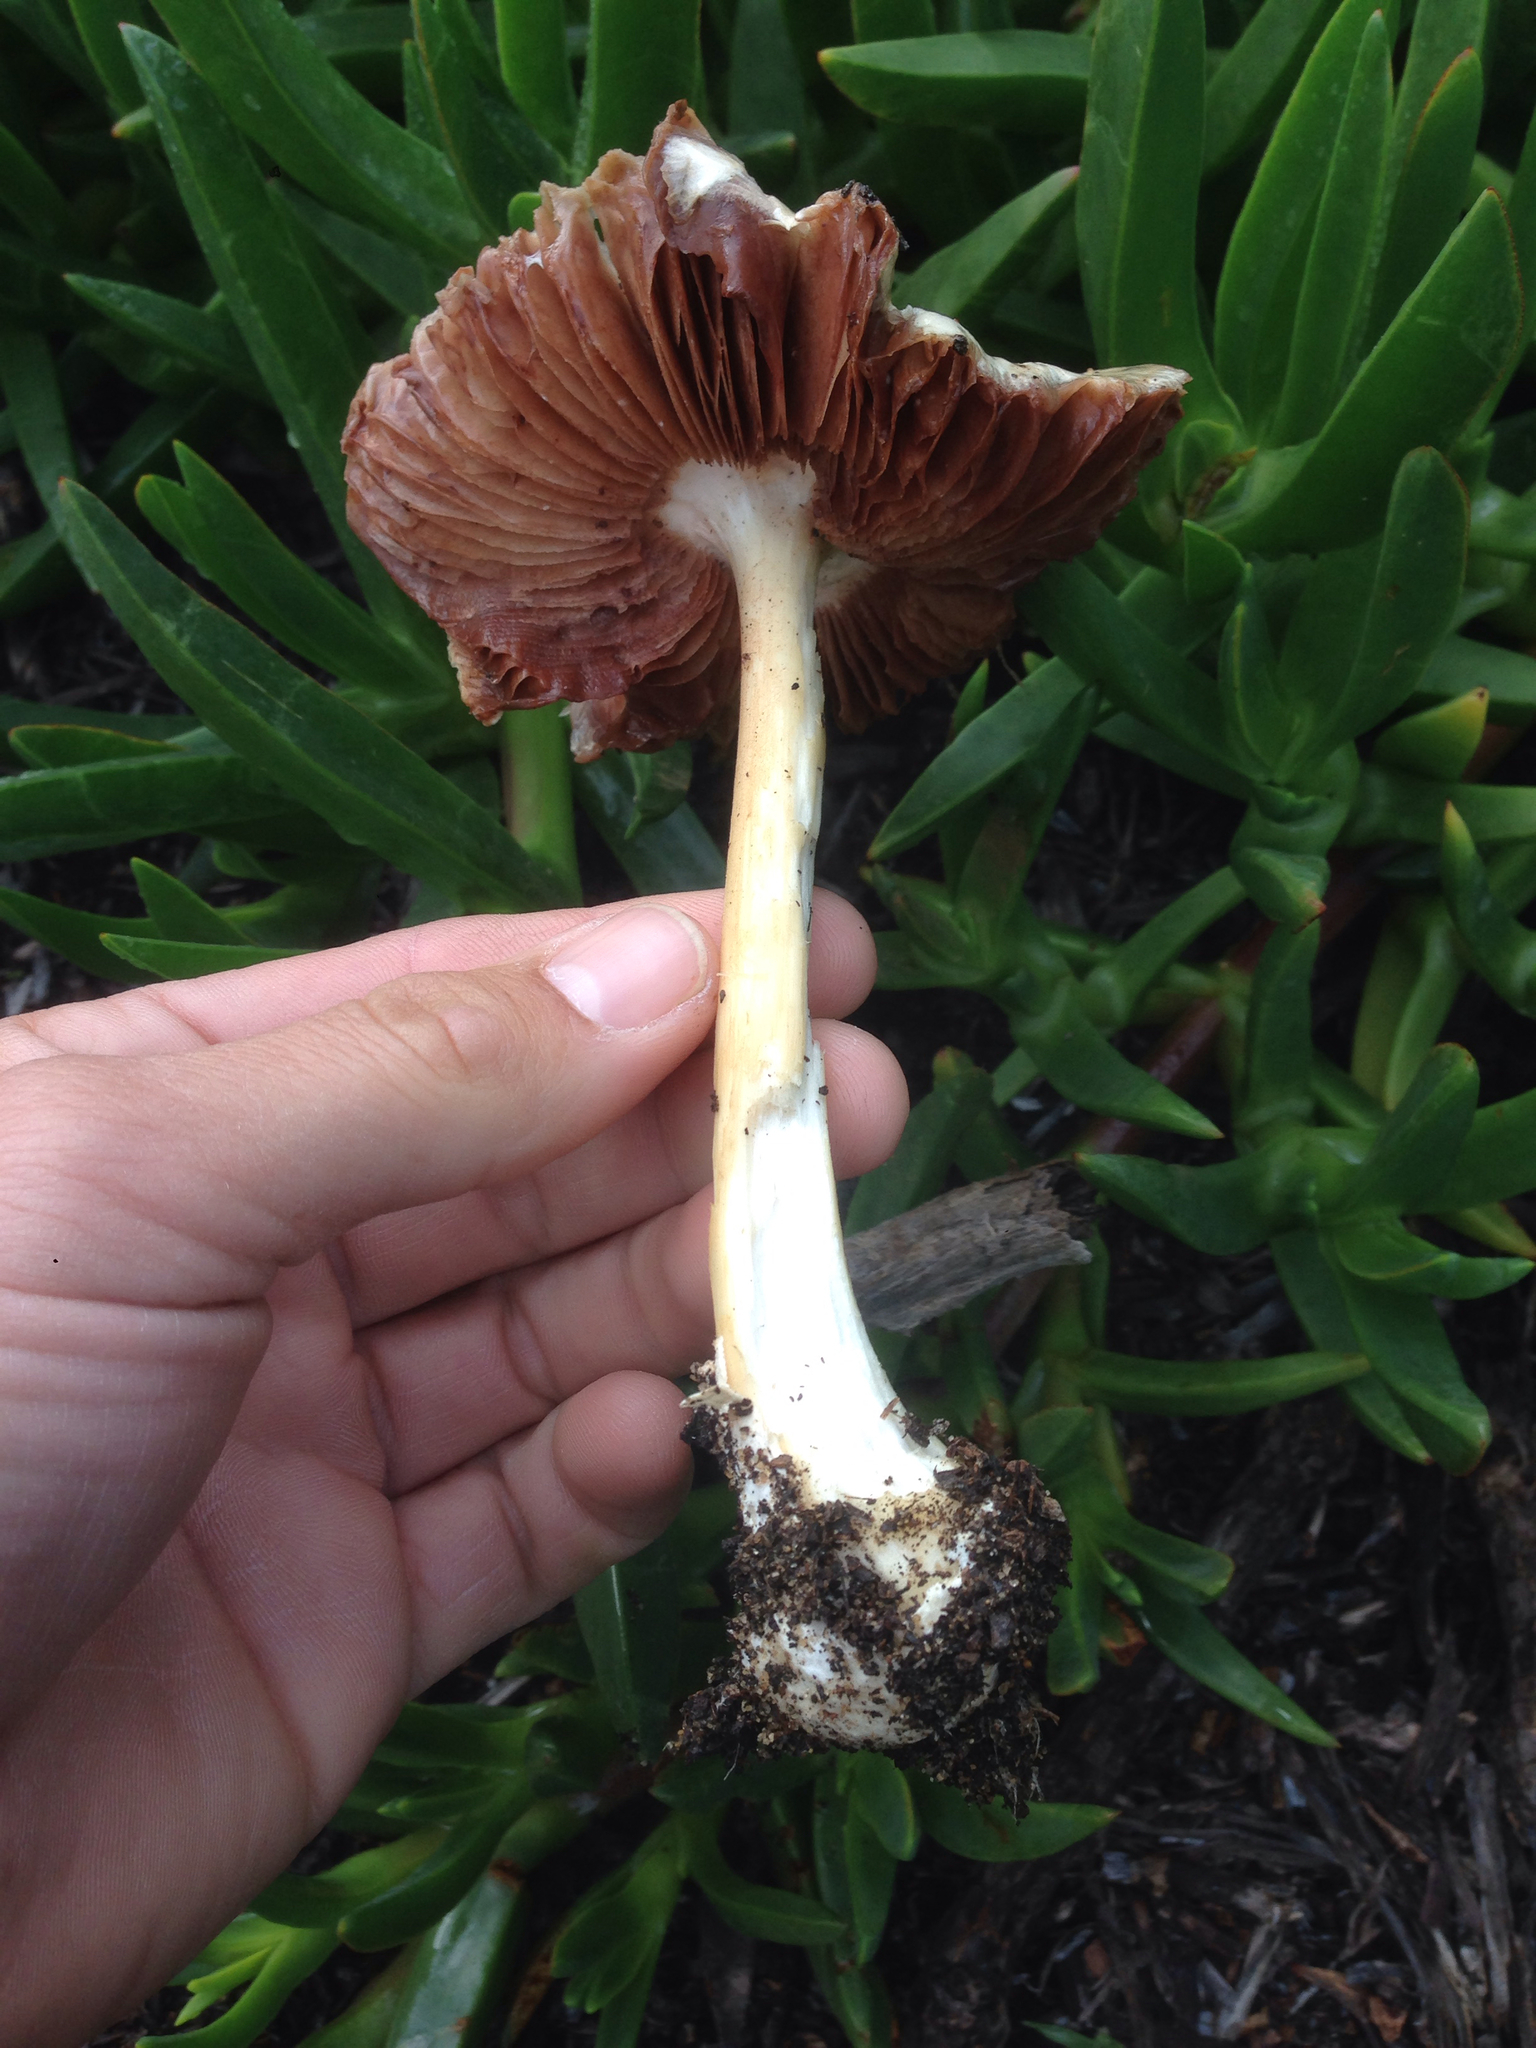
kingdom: Fungi
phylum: Basidiomycota
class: Agaricomycetes
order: Agaricales
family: Pluteaceae
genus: Volvopluteus
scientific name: Volvopluteus gloiocephalus
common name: Stubble rosegill
